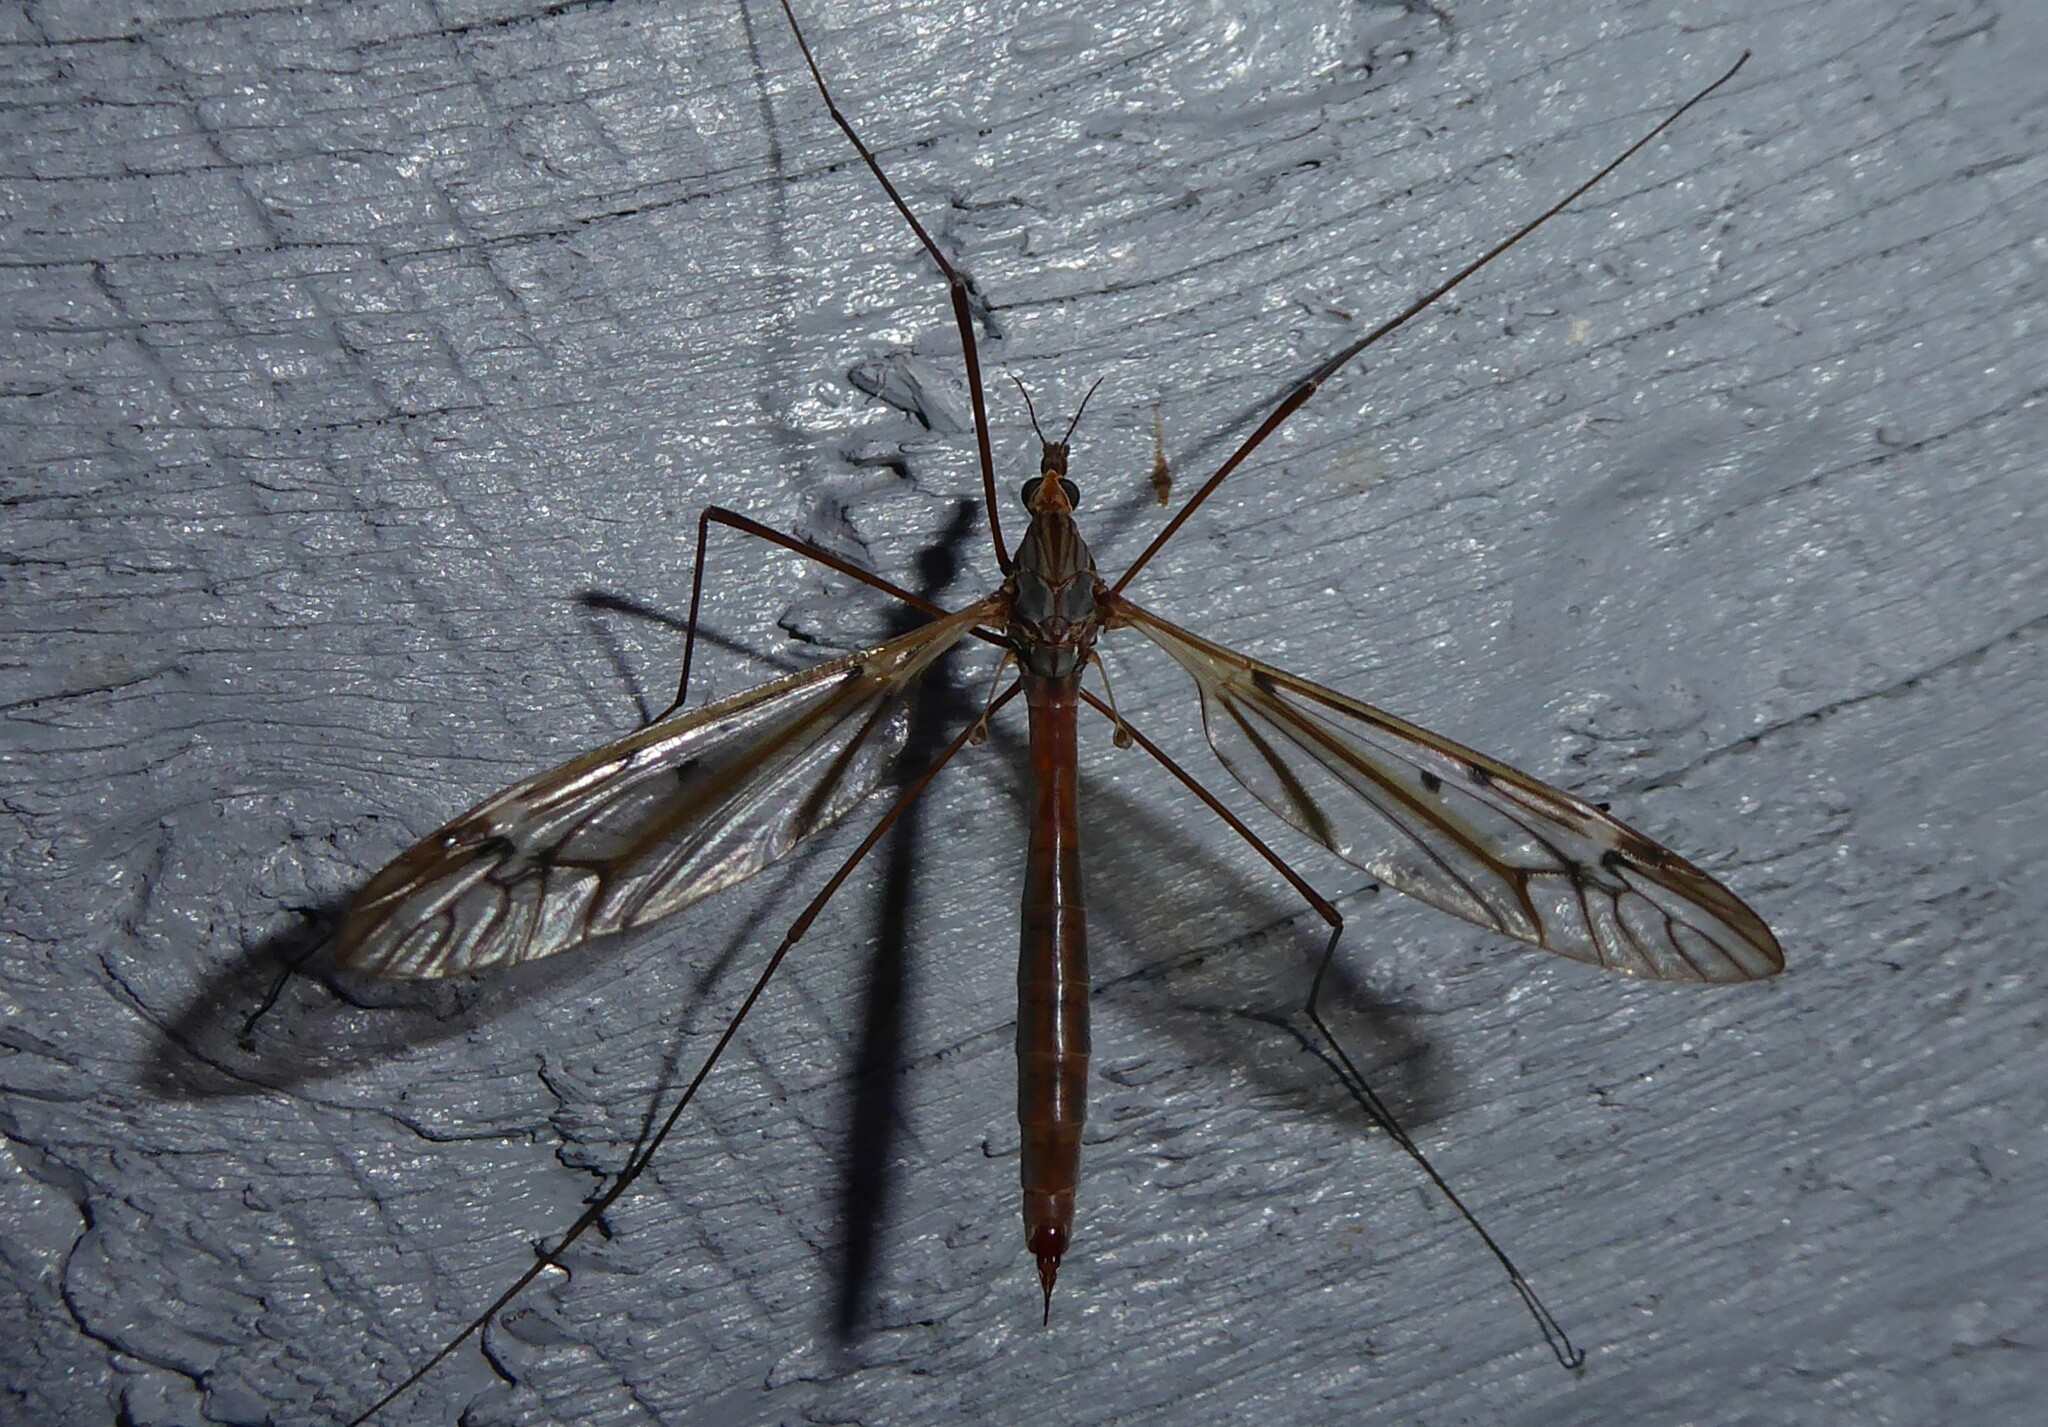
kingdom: Animalia
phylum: Arthropoda
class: Insecta
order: Diptera
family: Tipulidae
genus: Zelandotipula
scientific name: Zelandotipula novarae
